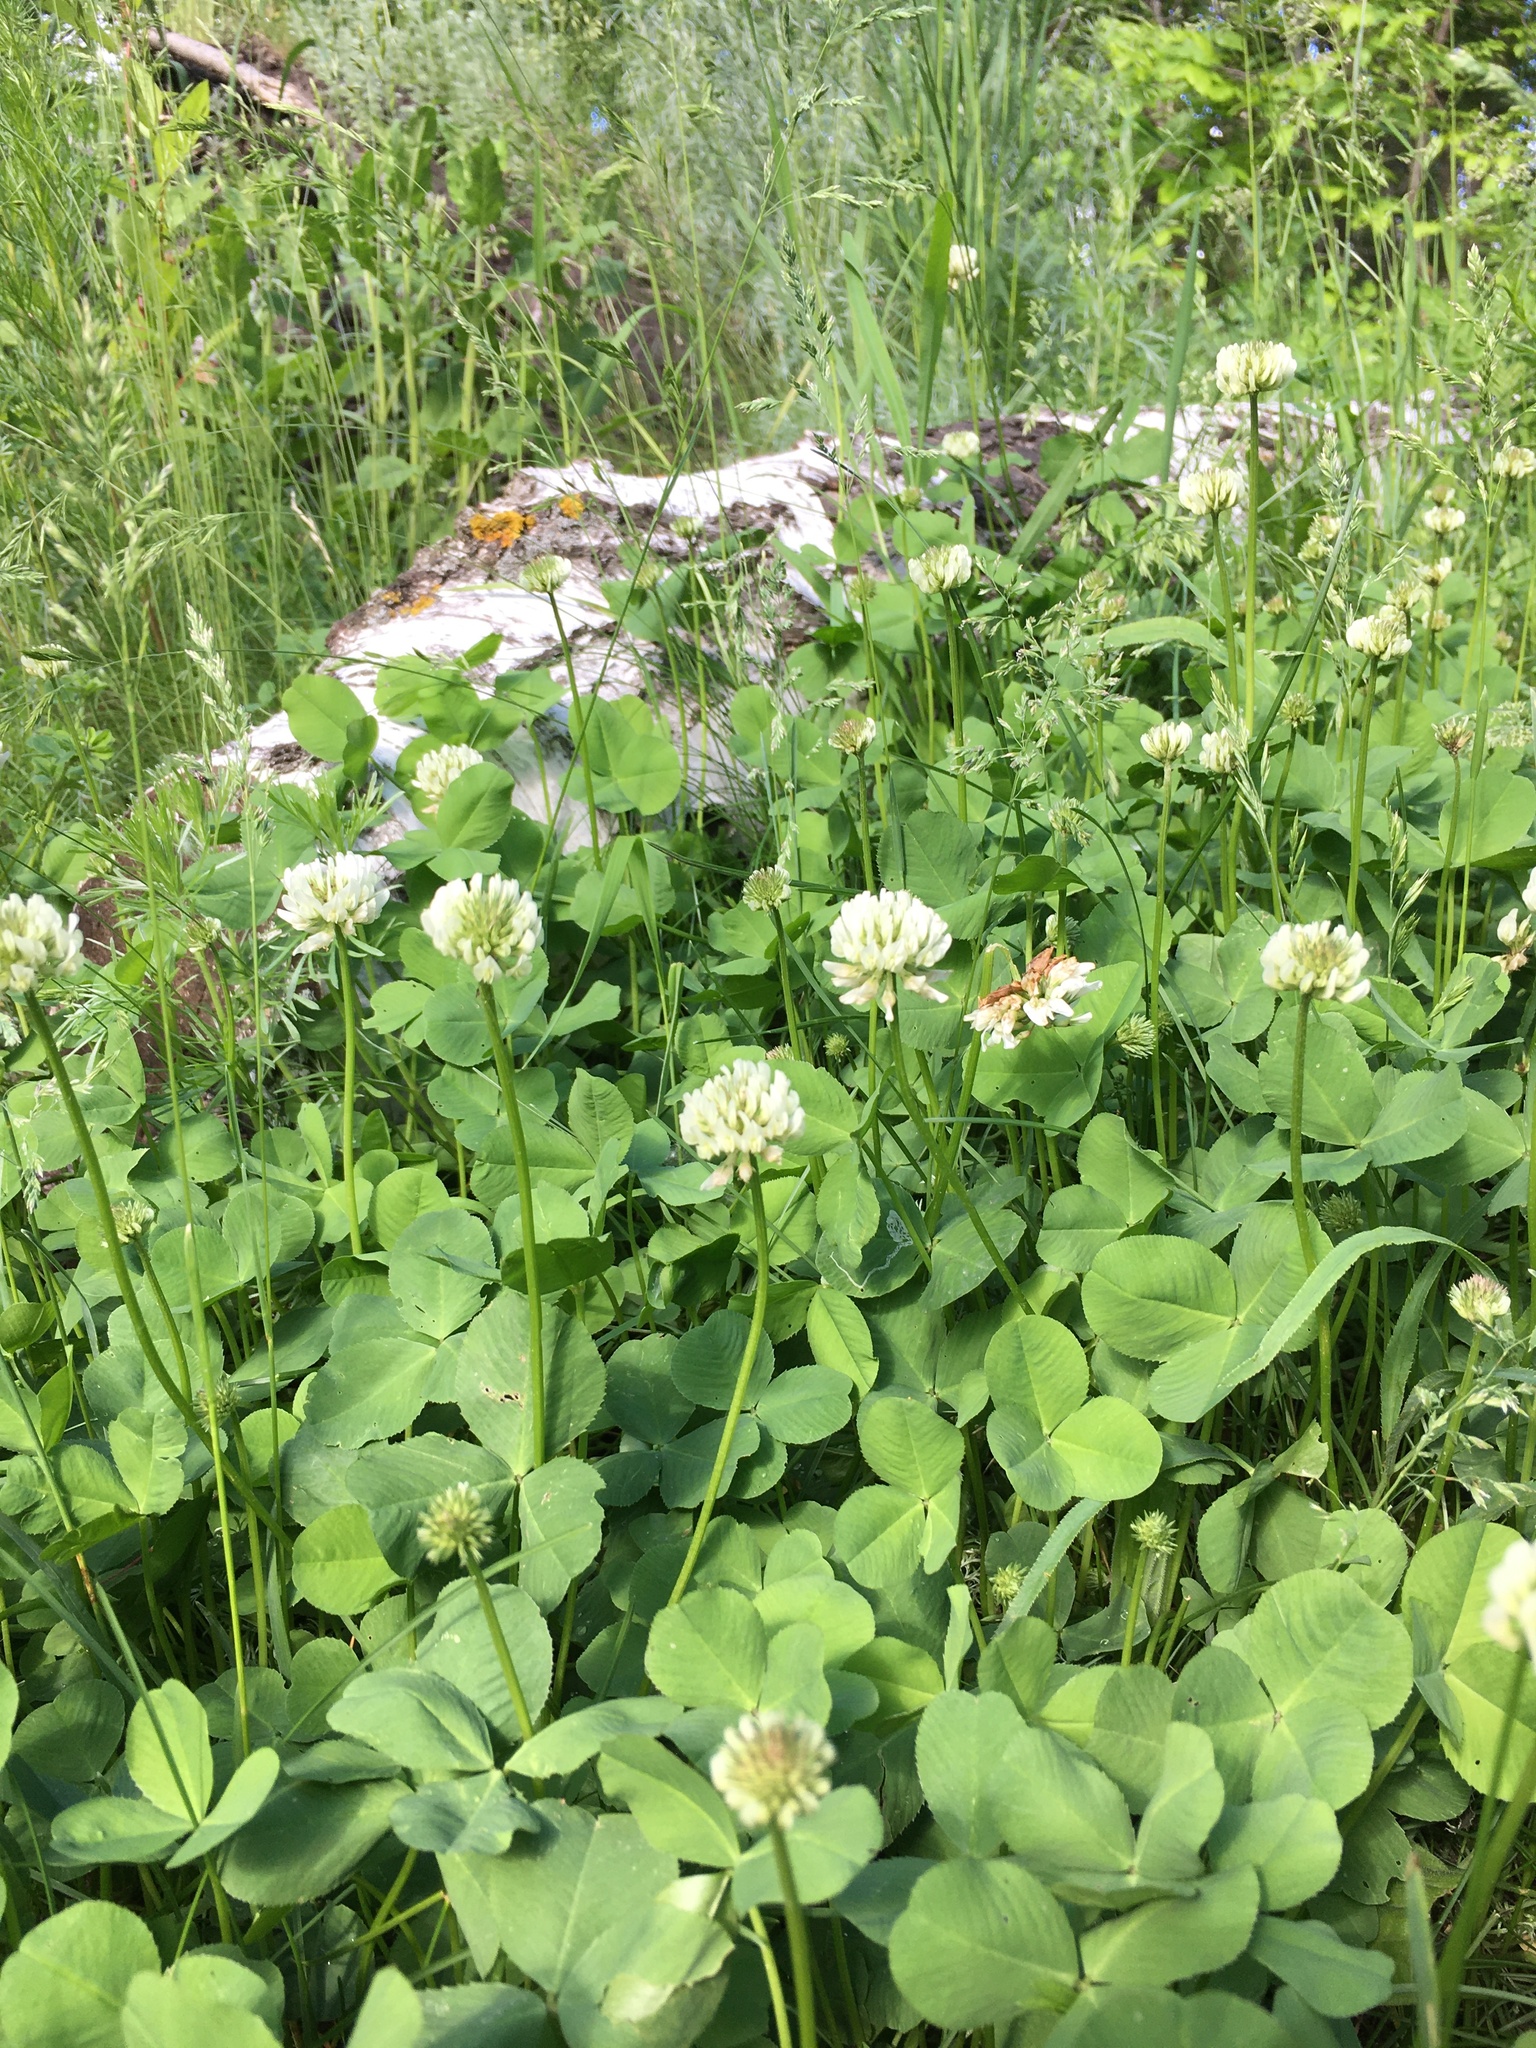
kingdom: Plantae
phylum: Tracheophyta
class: Magnoliopsida
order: Fabales
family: Fabaceae
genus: Trifolium
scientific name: Trifolium repens
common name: White clover
